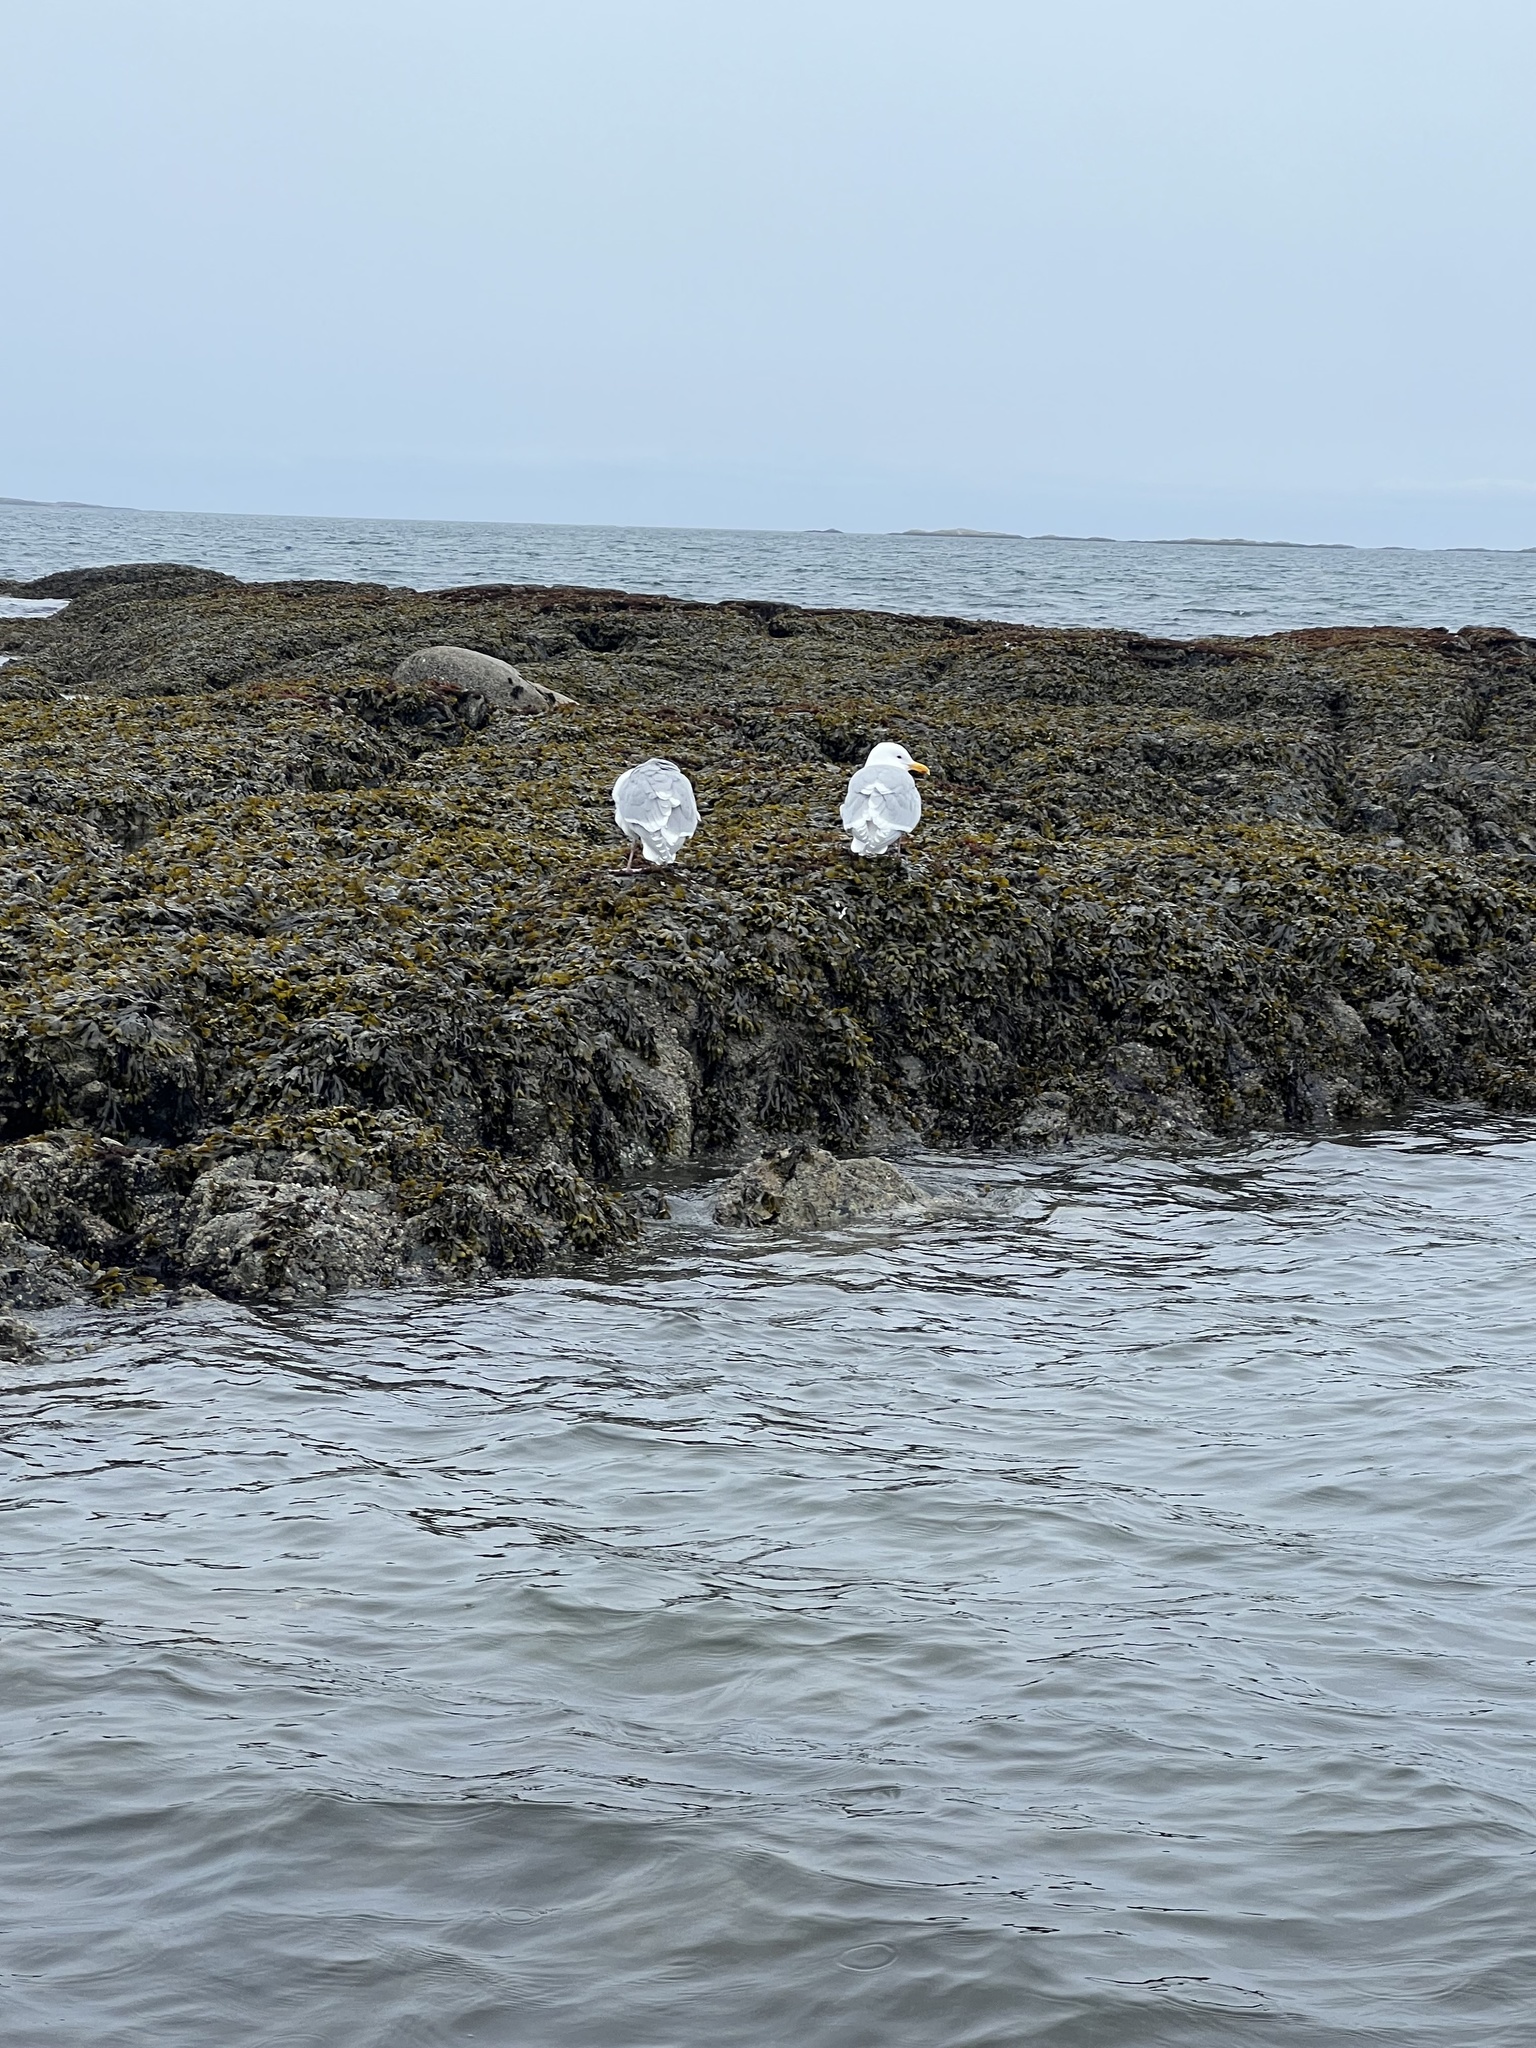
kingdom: Animalia
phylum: Chordata
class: Aves
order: Charadriiformes
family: Laridae
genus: Larus
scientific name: Larus glaucescens
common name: Glaucous-winged gull
